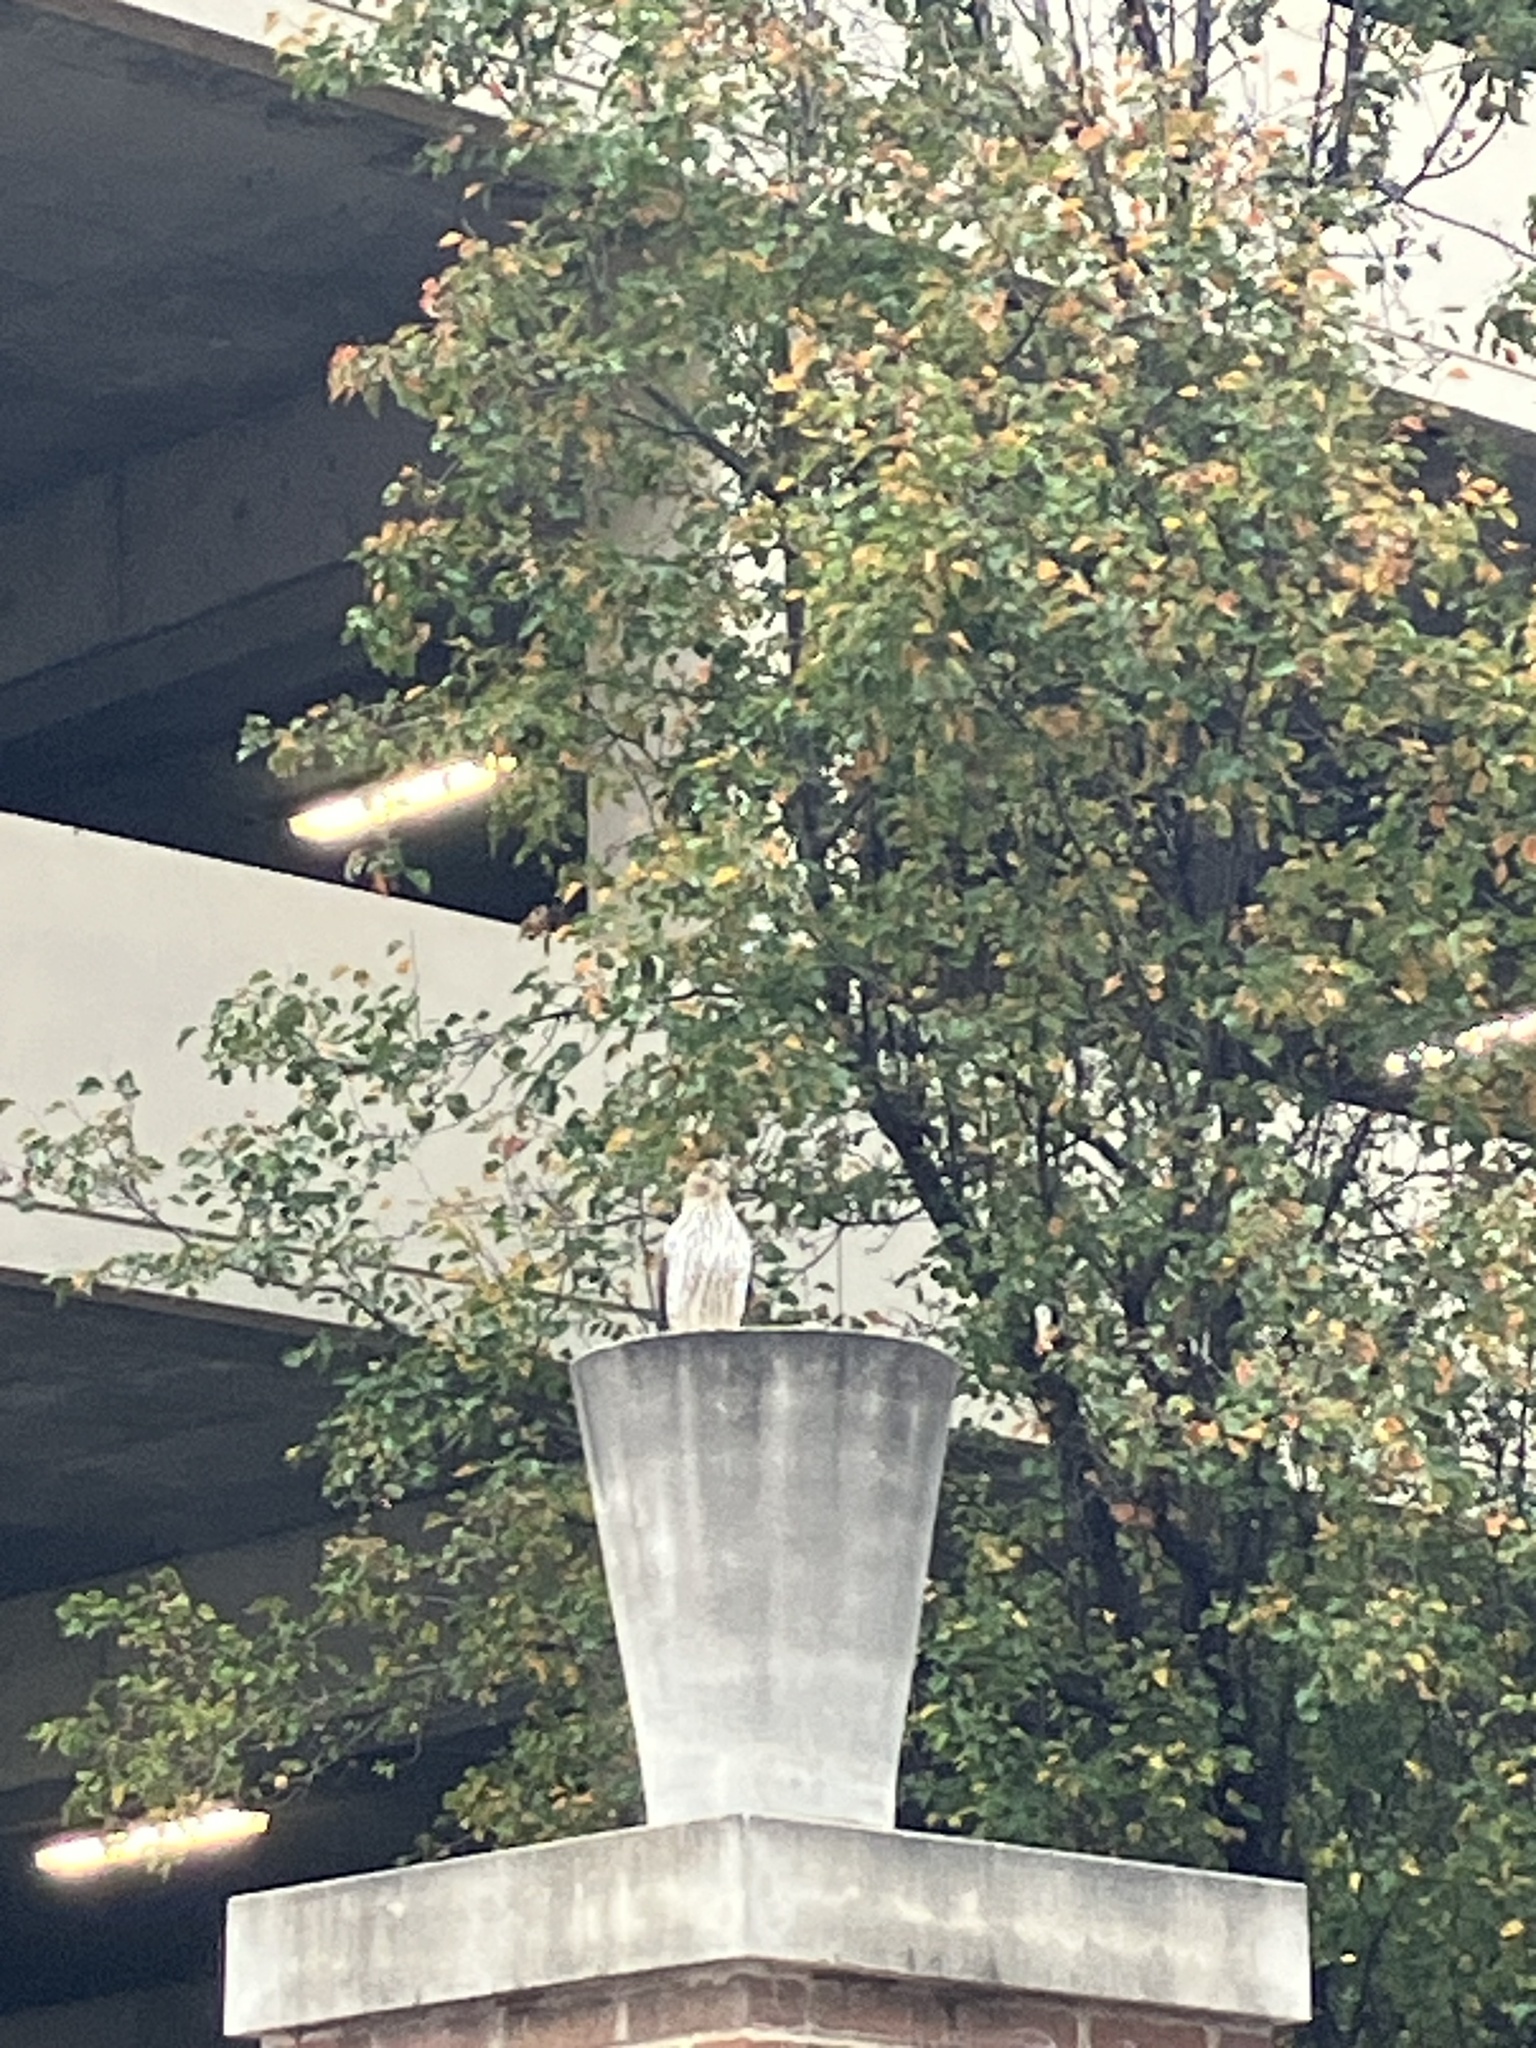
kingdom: Animalia
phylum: Chordata
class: Aves
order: Accipitriformes
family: Accipitridae
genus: Accipiter
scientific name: Accipiter cooperii
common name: Cooper's hawk
